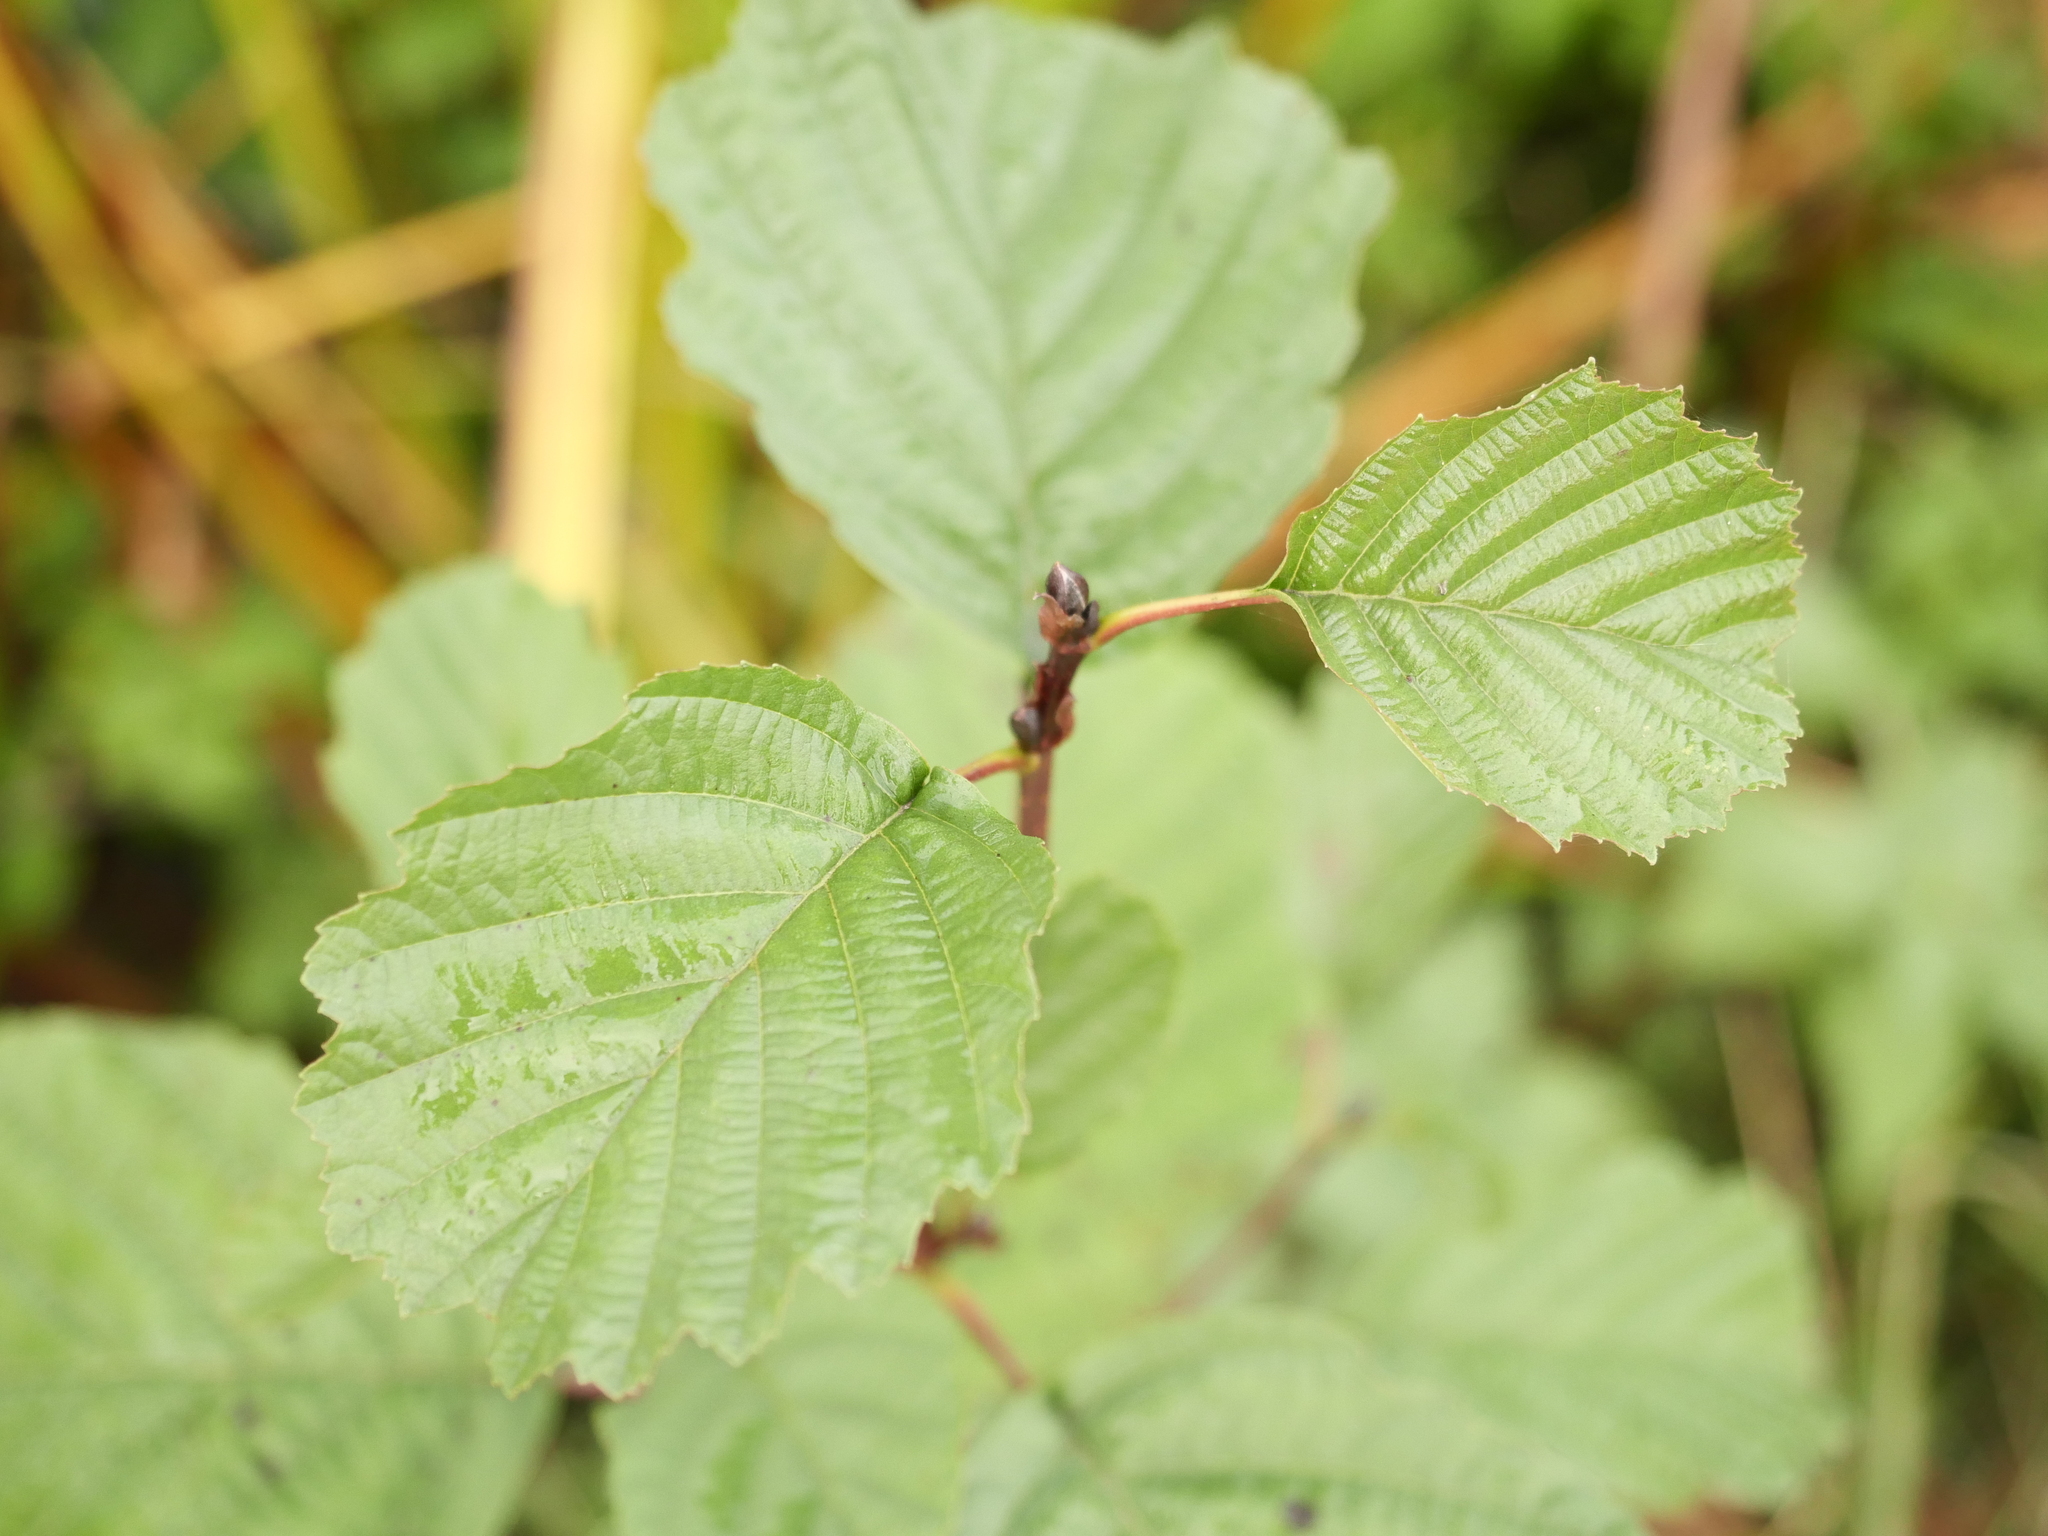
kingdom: Plantae
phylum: Tracheophyta
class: Magnoliopsida
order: Fagales
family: Betulaceae
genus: Alnus
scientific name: Alnus glutinosa
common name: Black alder
